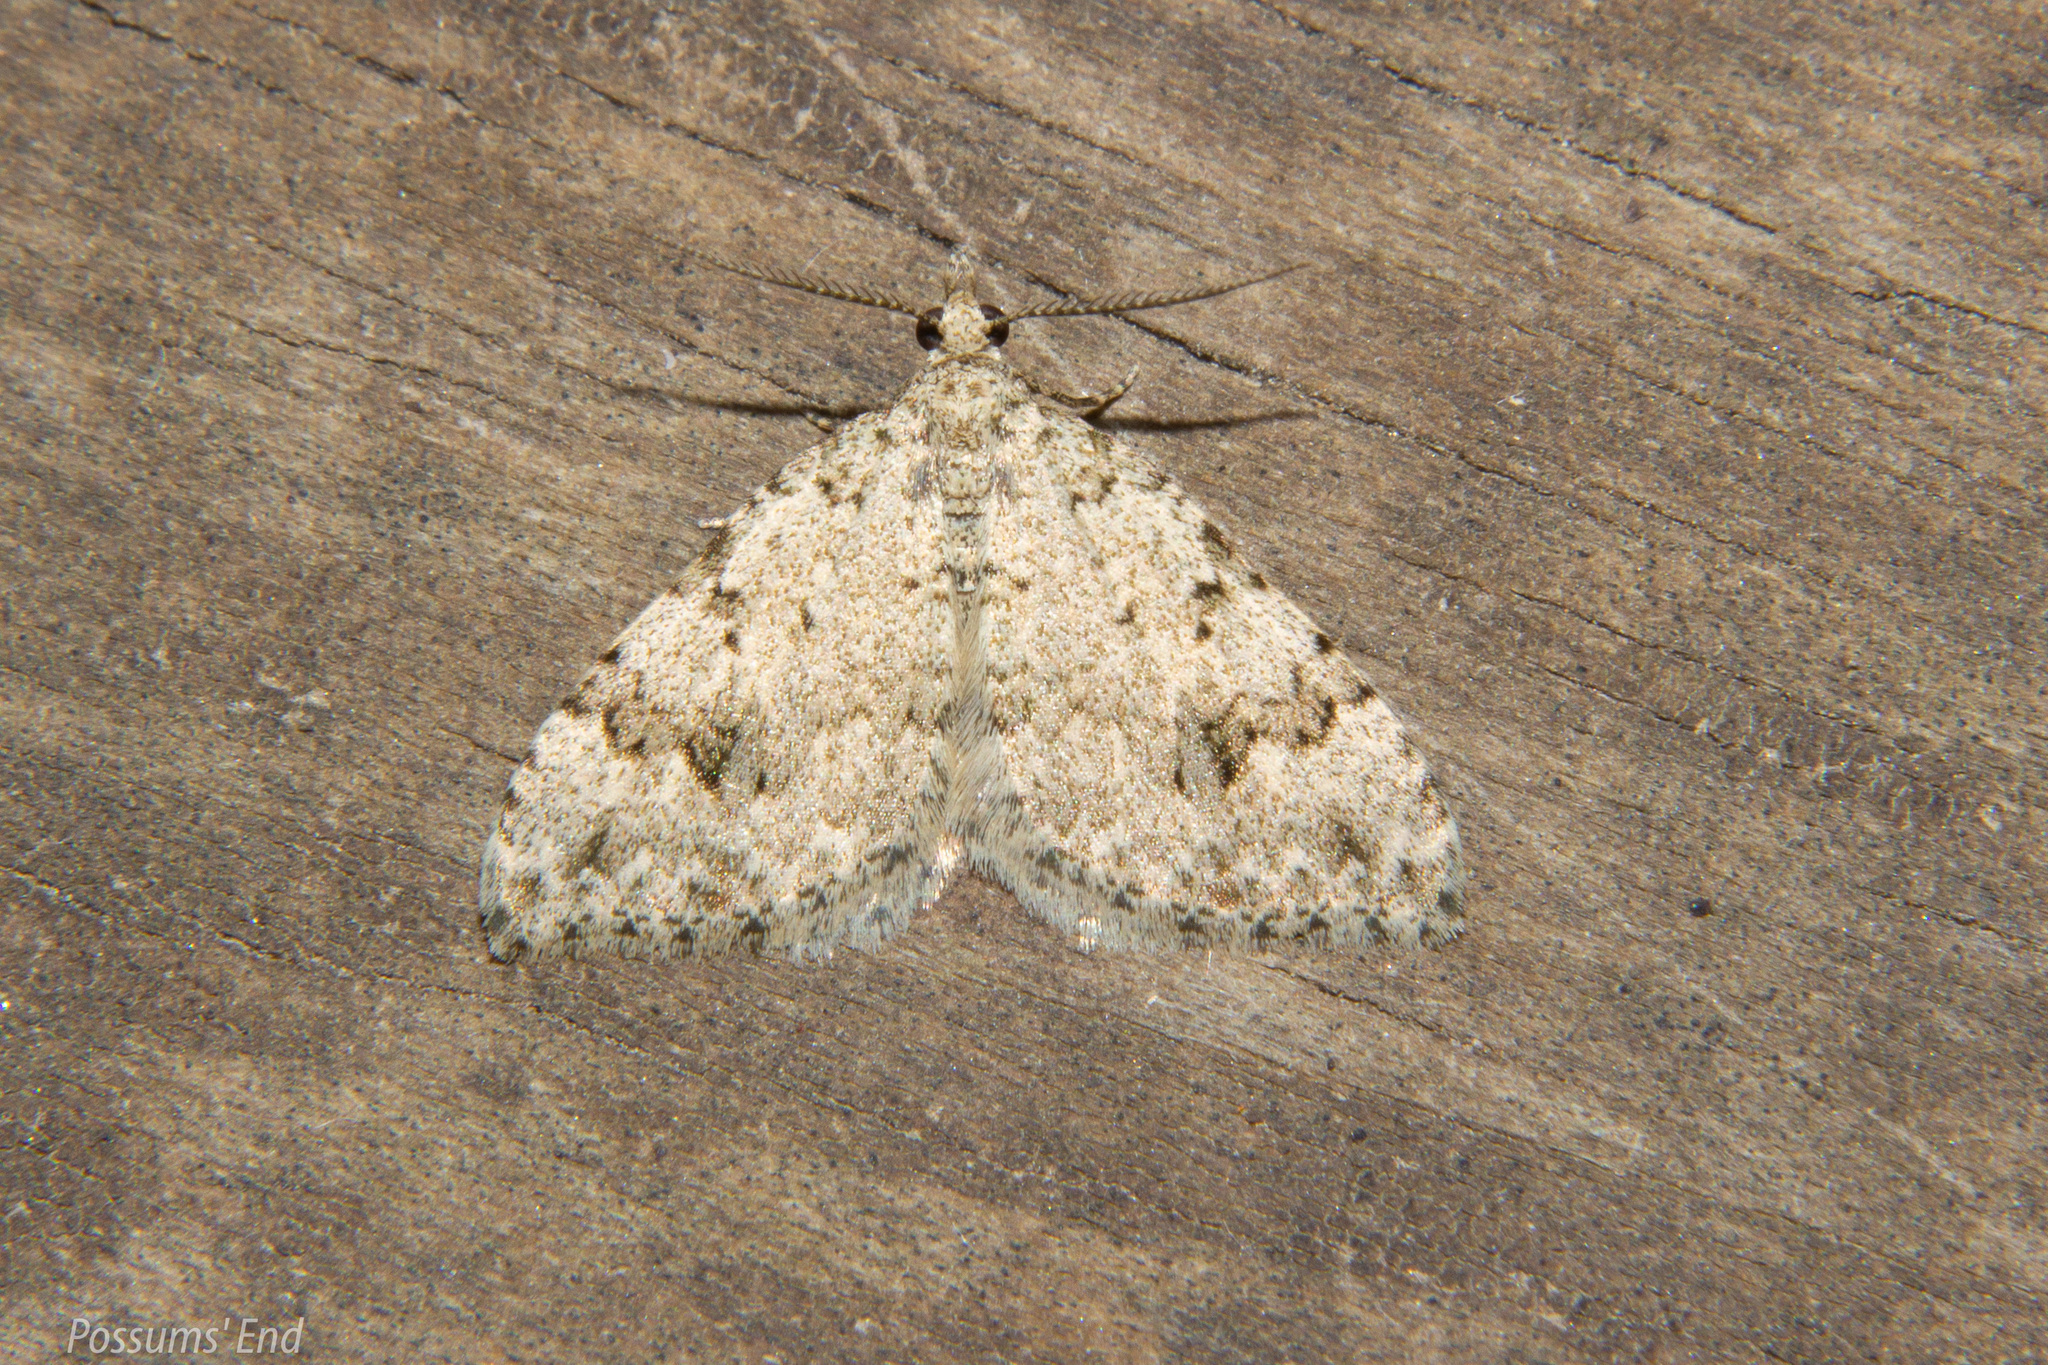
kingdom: Animalia
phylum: Arthropoda
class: Insecta
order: Lepidoptera
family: Geometridae
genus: Helastia
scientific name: Helastia cinerearia
